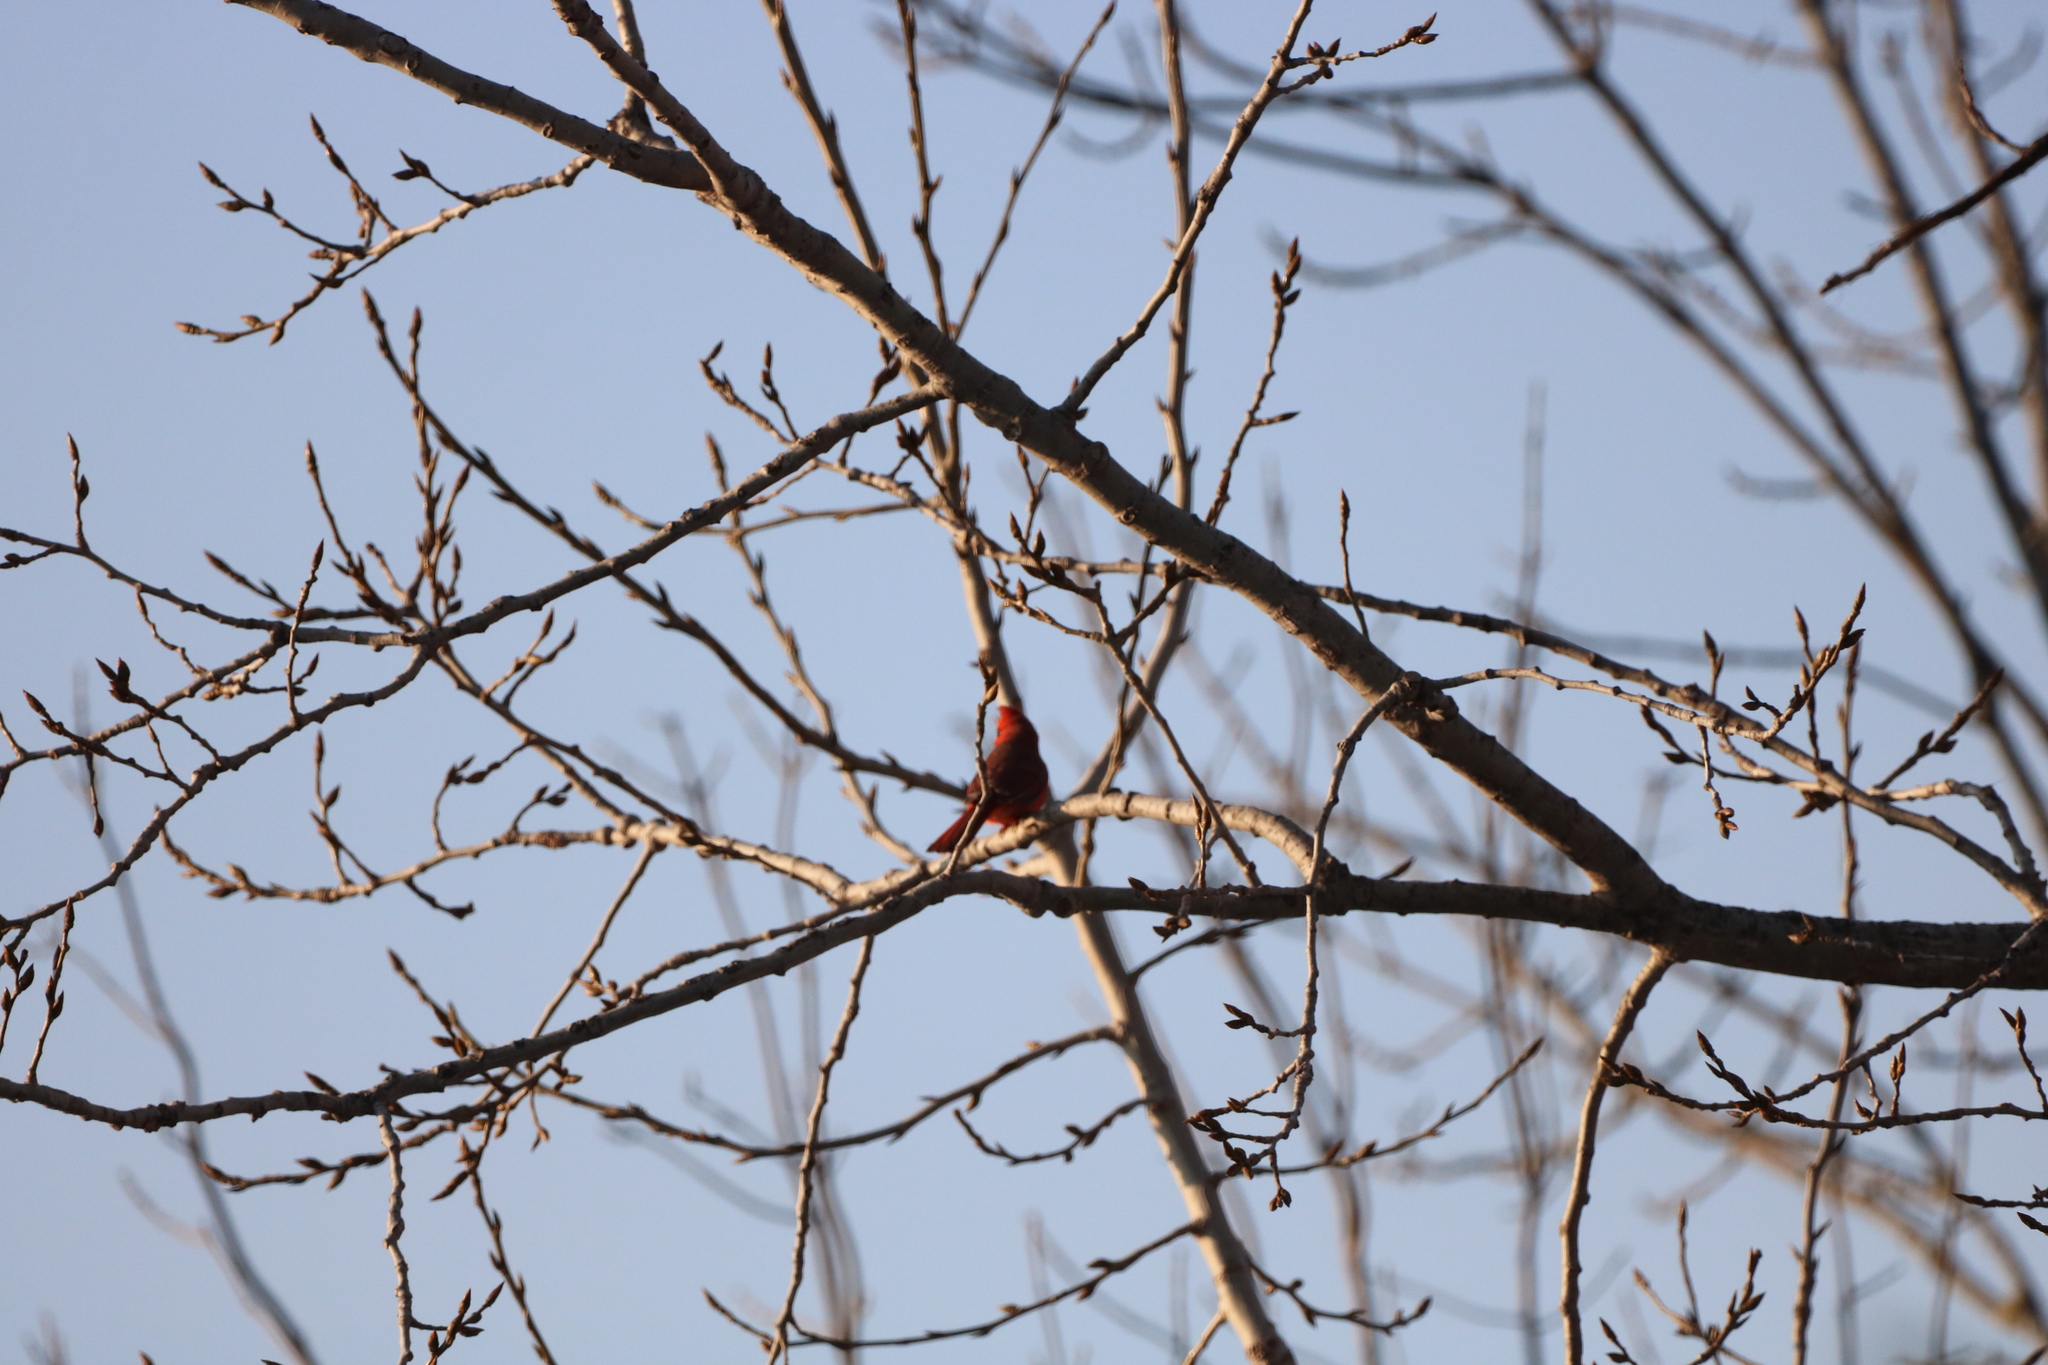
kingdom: Animalia
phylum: Chordata
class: Aves
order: Passeriformes
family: Cardinalidae
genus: Cardinalis
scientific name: Cardinalis cardinalis
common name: Northern cardinal
